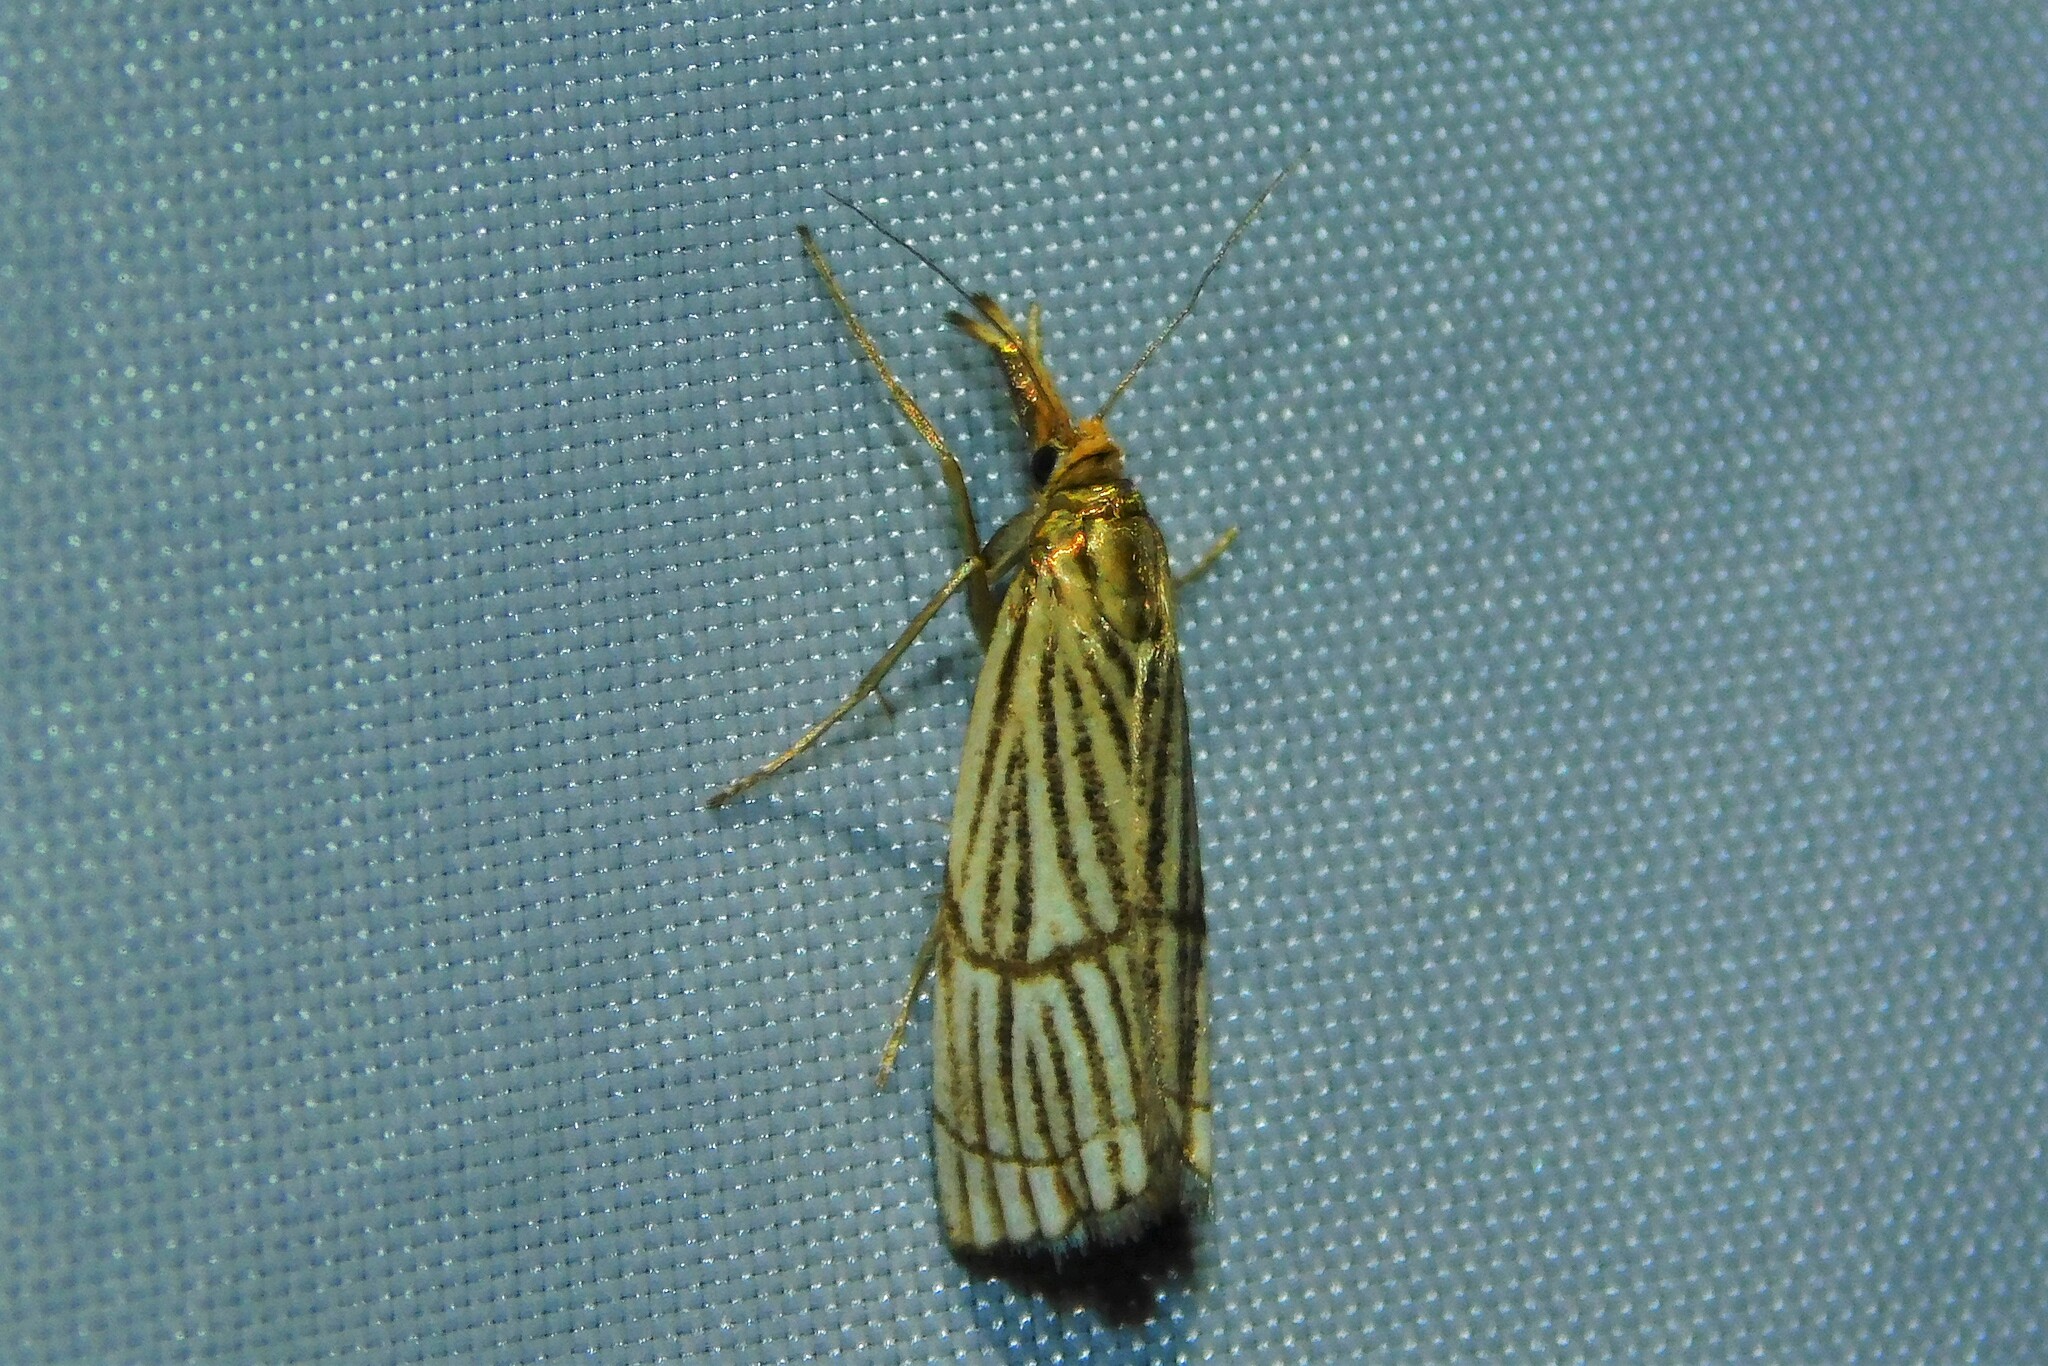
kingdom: Animalia
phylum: Arthropoda
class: Insecta
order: Lepidoptera
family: Crambidae
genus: Chrysocrambus
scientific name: Chrysocrambus linetella
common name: Orange-bar grass-veneer
